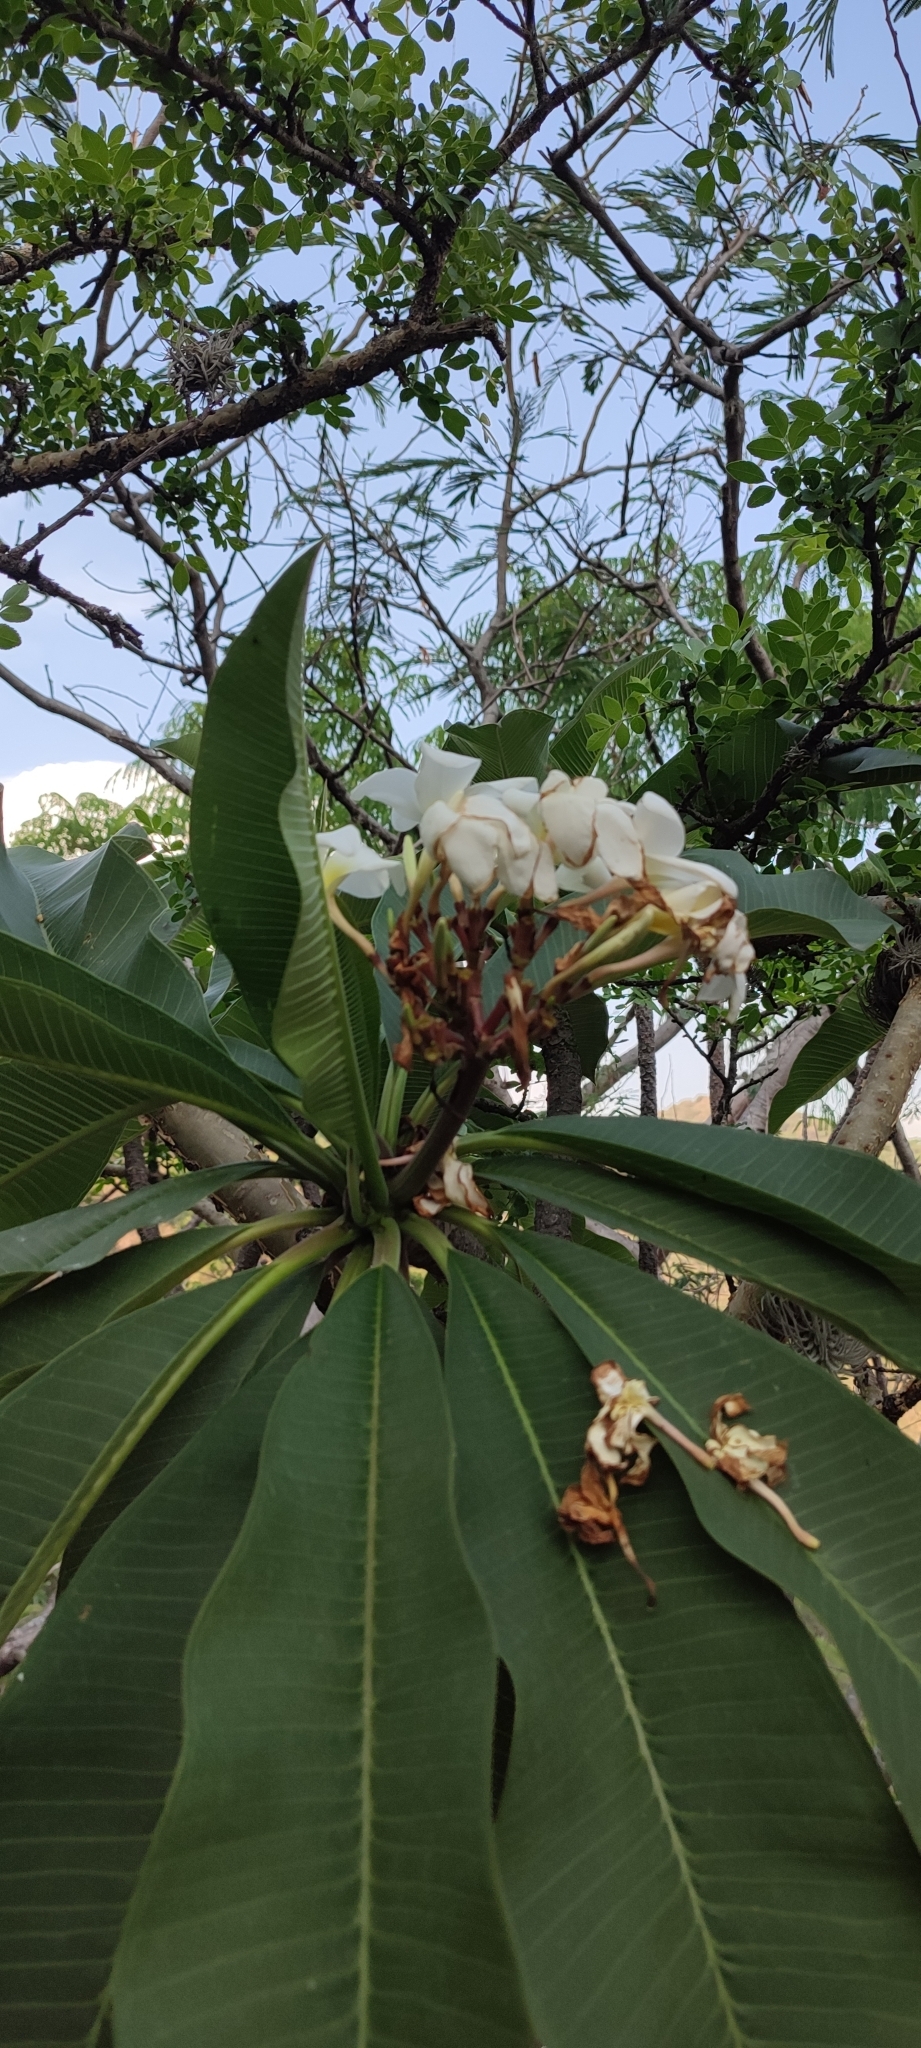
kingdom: Plantae
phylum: Tracheophyta
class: Magnoliopsida
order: Gentianales
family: Apocynaceae
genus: Plumeria
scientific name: Plumeria rubra
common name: Pagoda-tree
